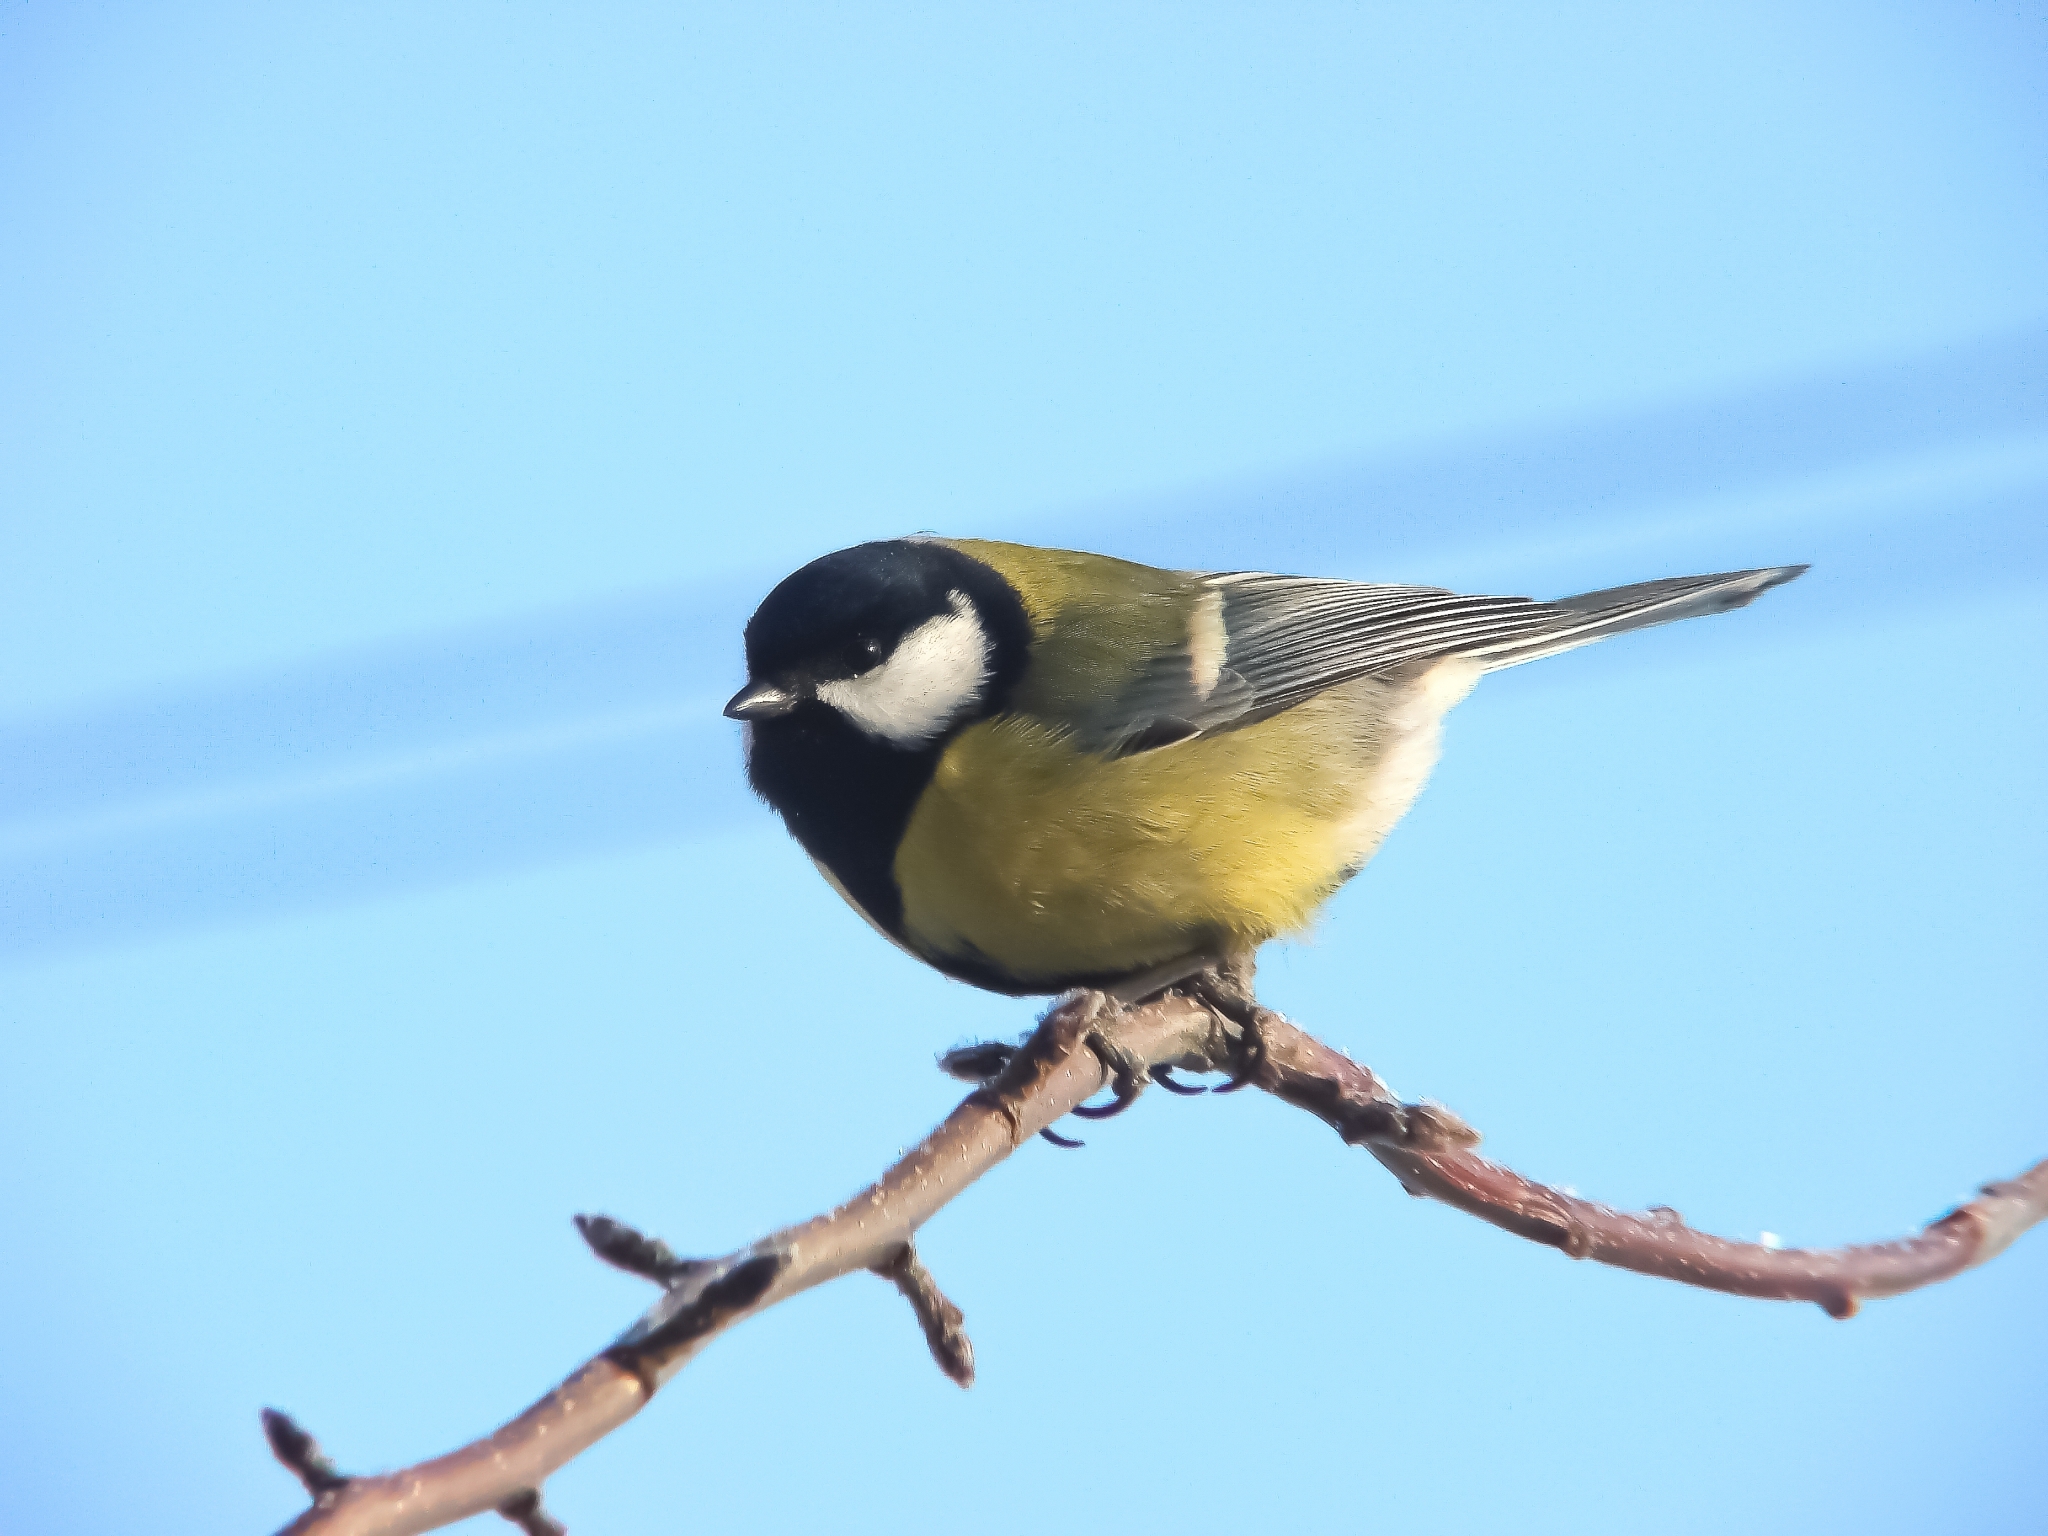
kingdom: Animalia
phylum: Chordata
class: Aves
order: Passeriformes
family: Paridae
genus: Parus
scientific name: Parus major
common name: Great tit
